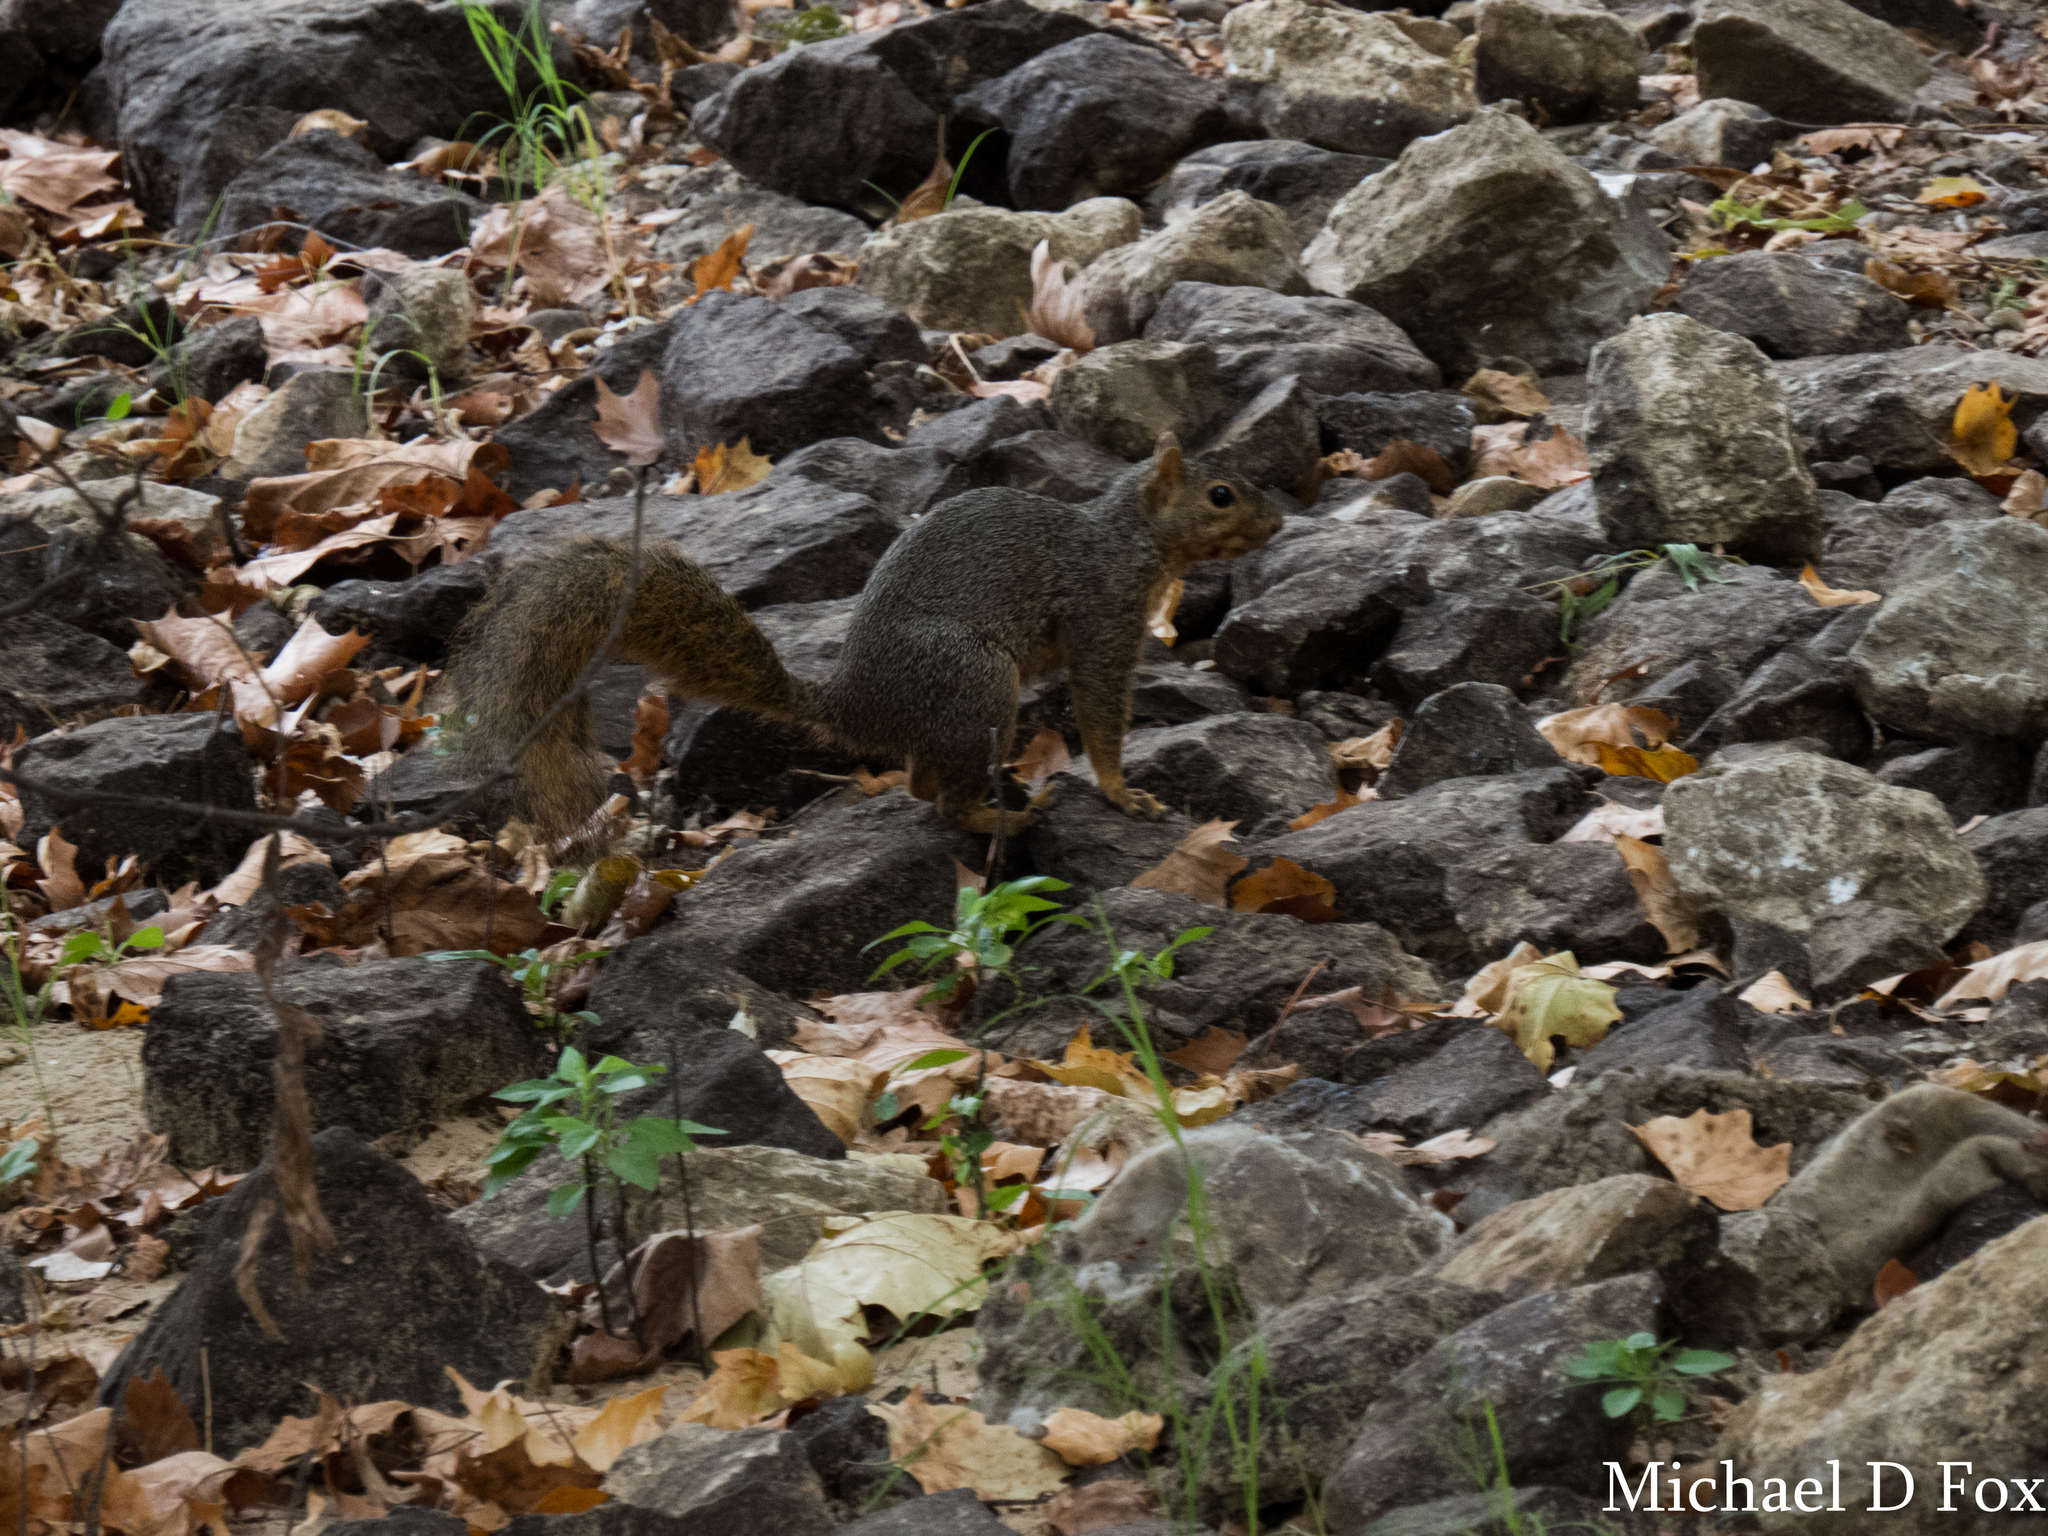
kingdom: Animalia
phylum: Chordata
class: Mammalia
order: Rodentia
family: Sciuridae
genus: Sciurus
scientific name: Sciurus niger
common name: Fox squirrel
